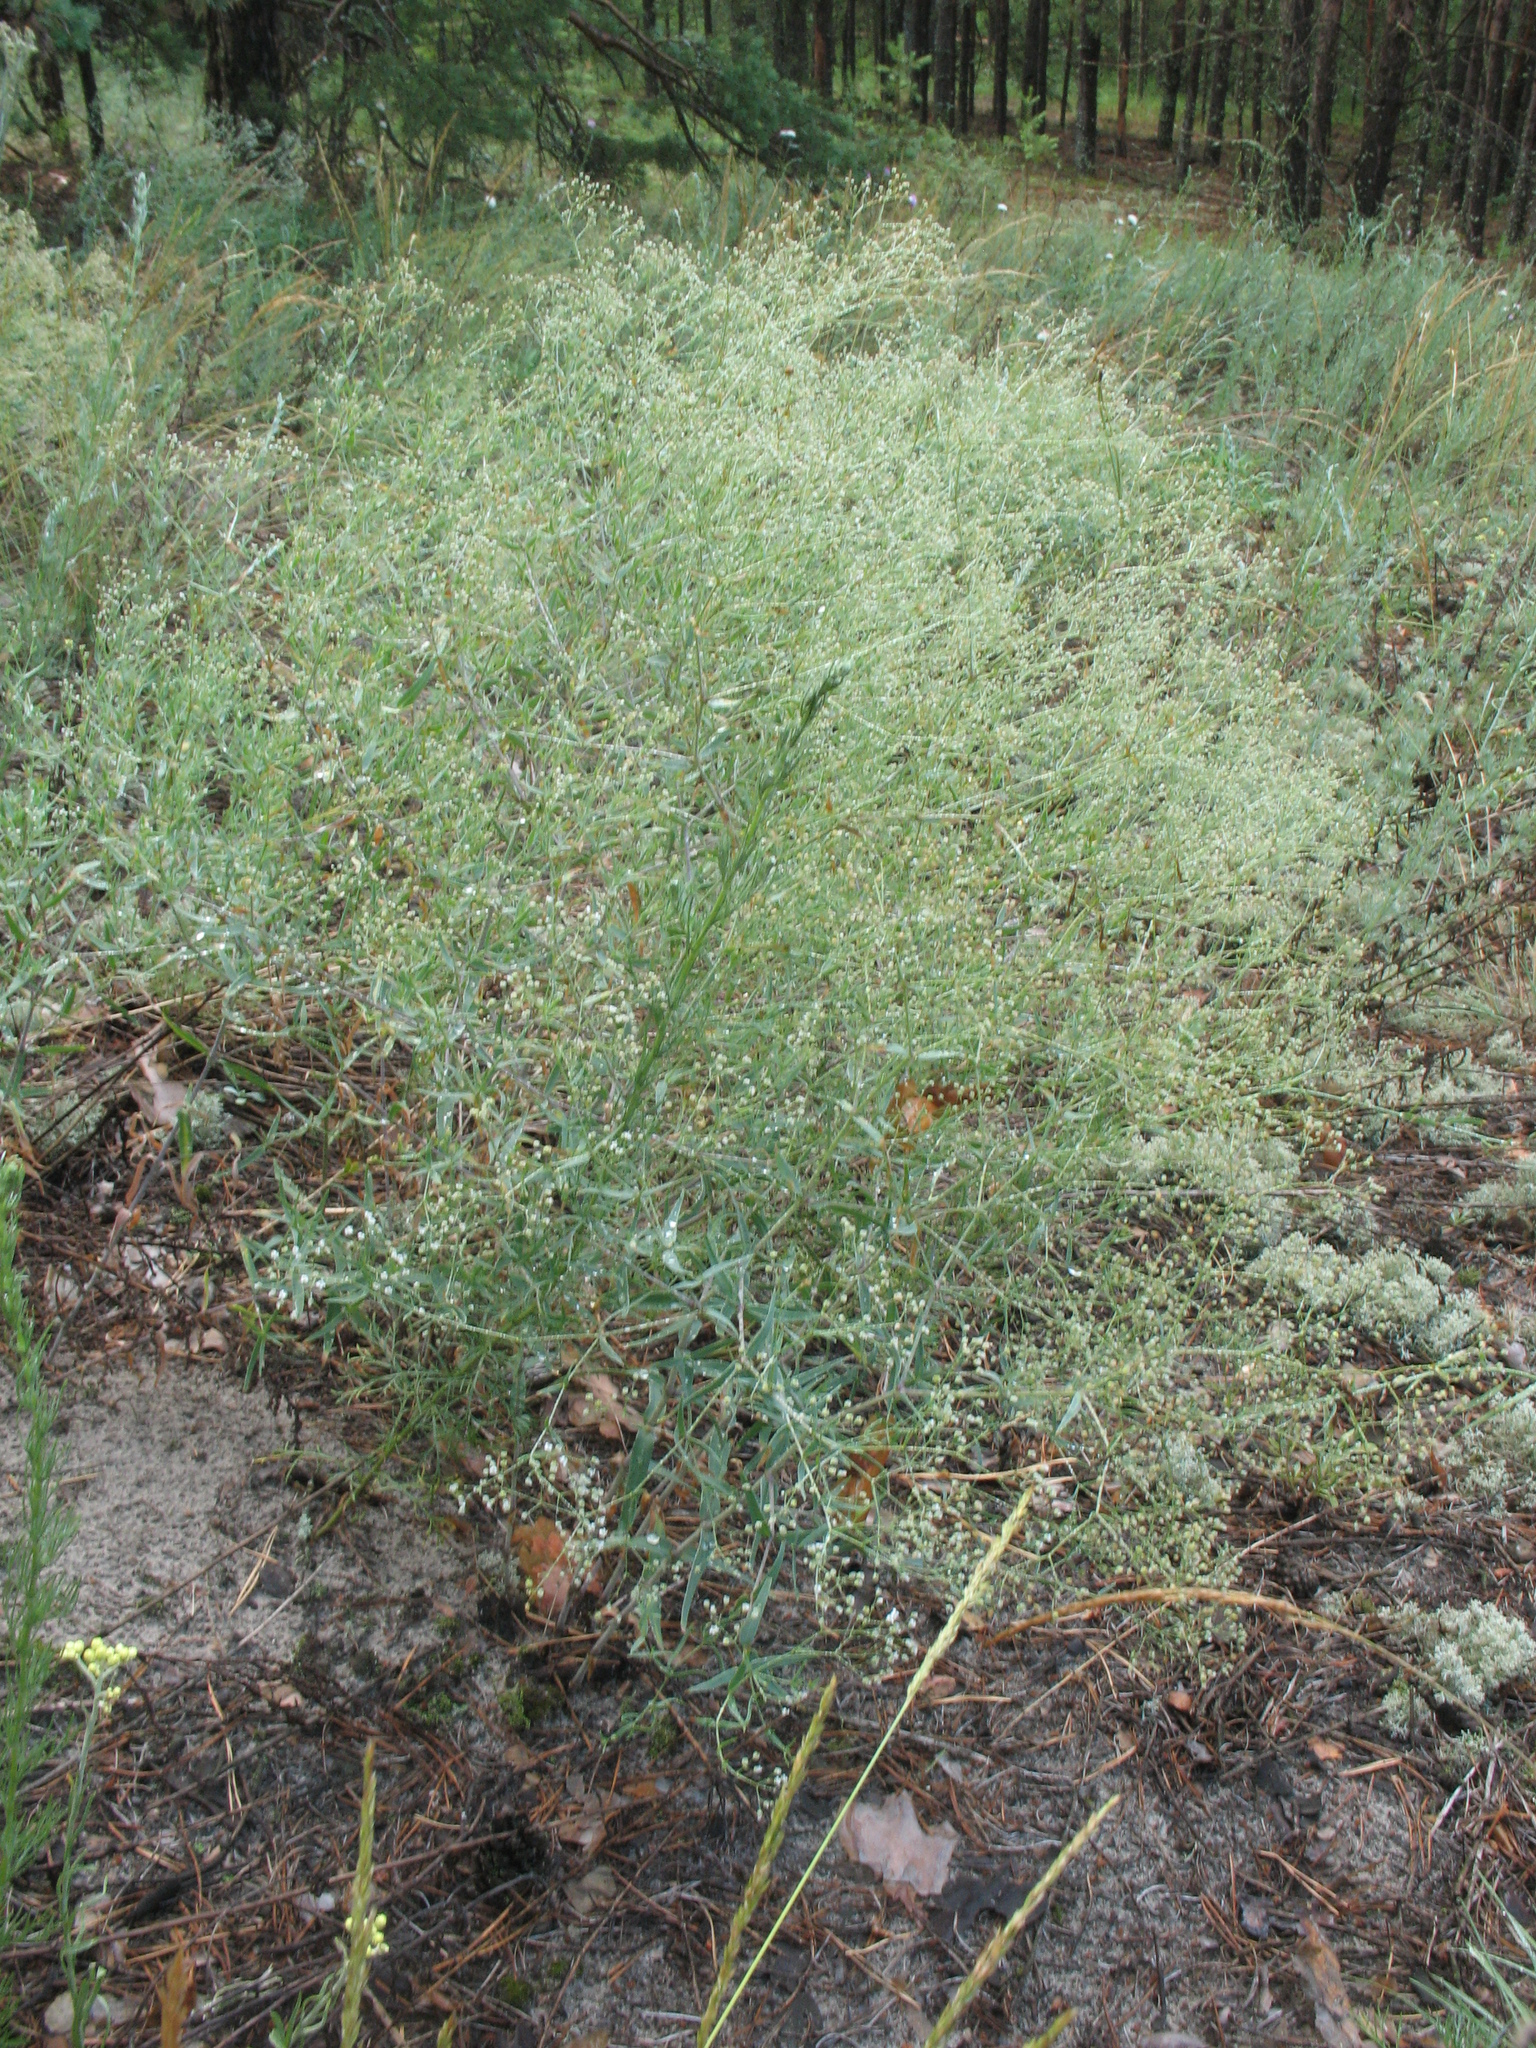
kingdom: Plantae
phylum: Tracheophyta
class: Magnoliopsida
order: Caryophyllales
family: Caryophyllaceae
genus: Gypsophila
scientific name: Gypsophila paniculata
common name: Baby's-breath
